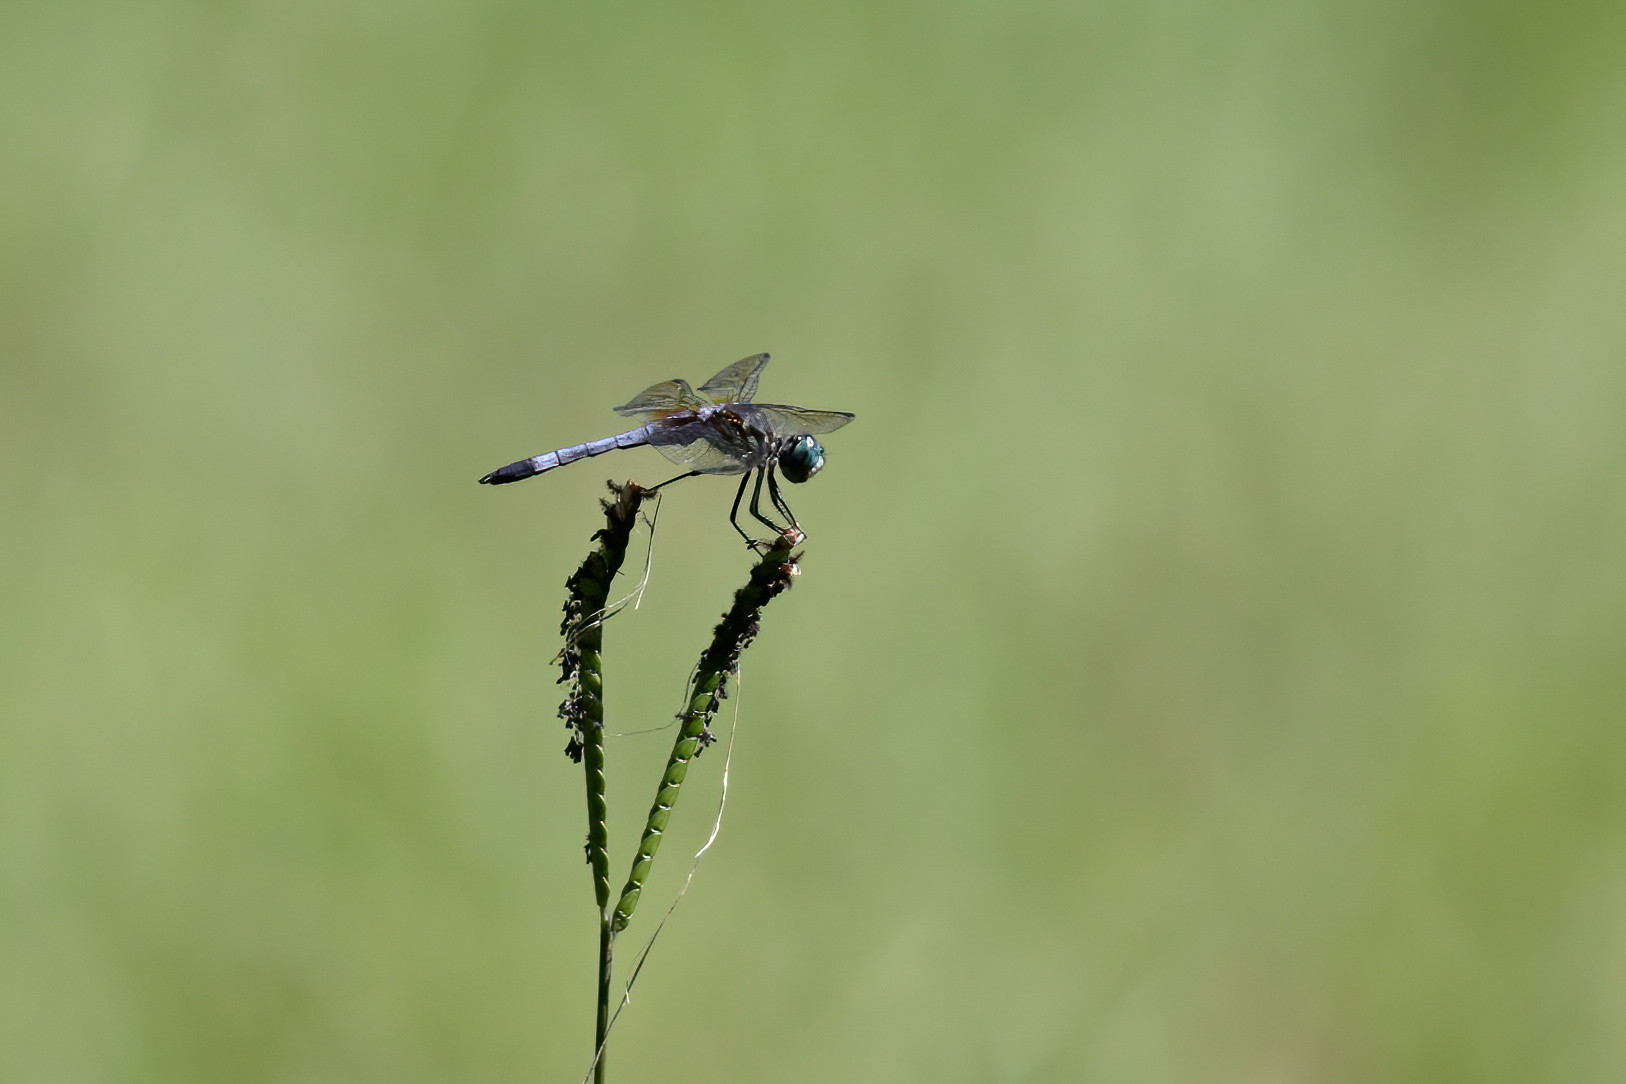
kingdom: Animalia
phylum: Arthropoda
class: Insecta
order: Odonata
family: Libellulidae
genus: Pachydiplax
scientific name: Pachydiplax longipennis
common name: Blue dasher
